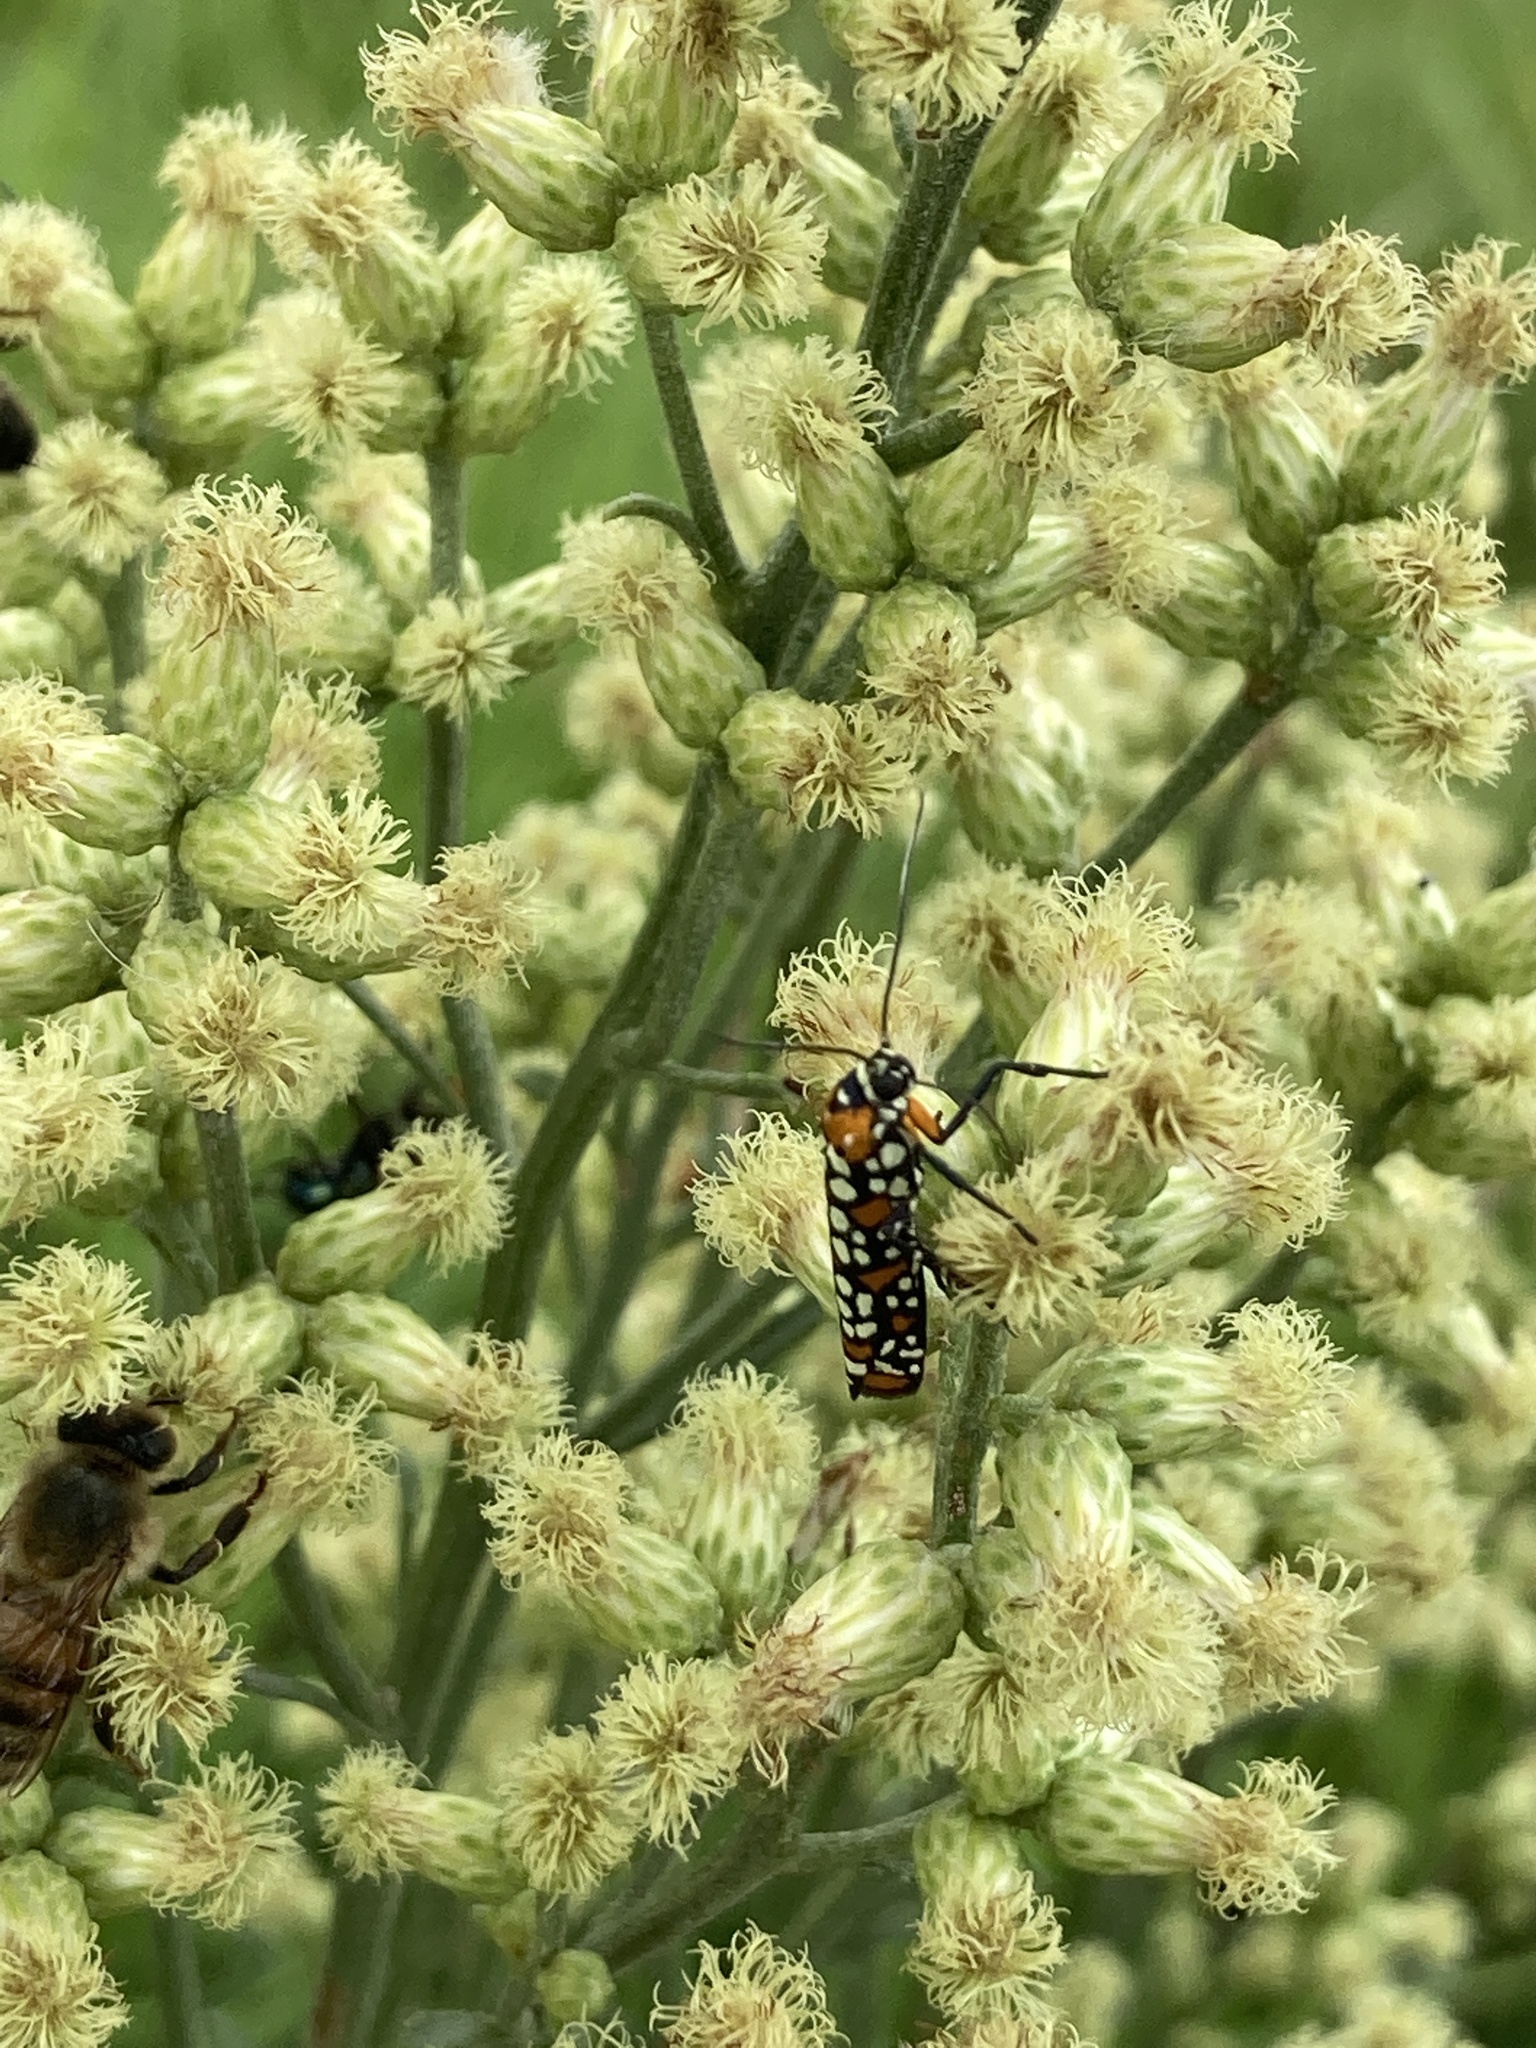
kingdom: Animalia
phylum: Arthropoda
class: Insecta
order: Lepidoptera
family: Attevidae
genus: Atteva
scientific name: Atteva punctella
